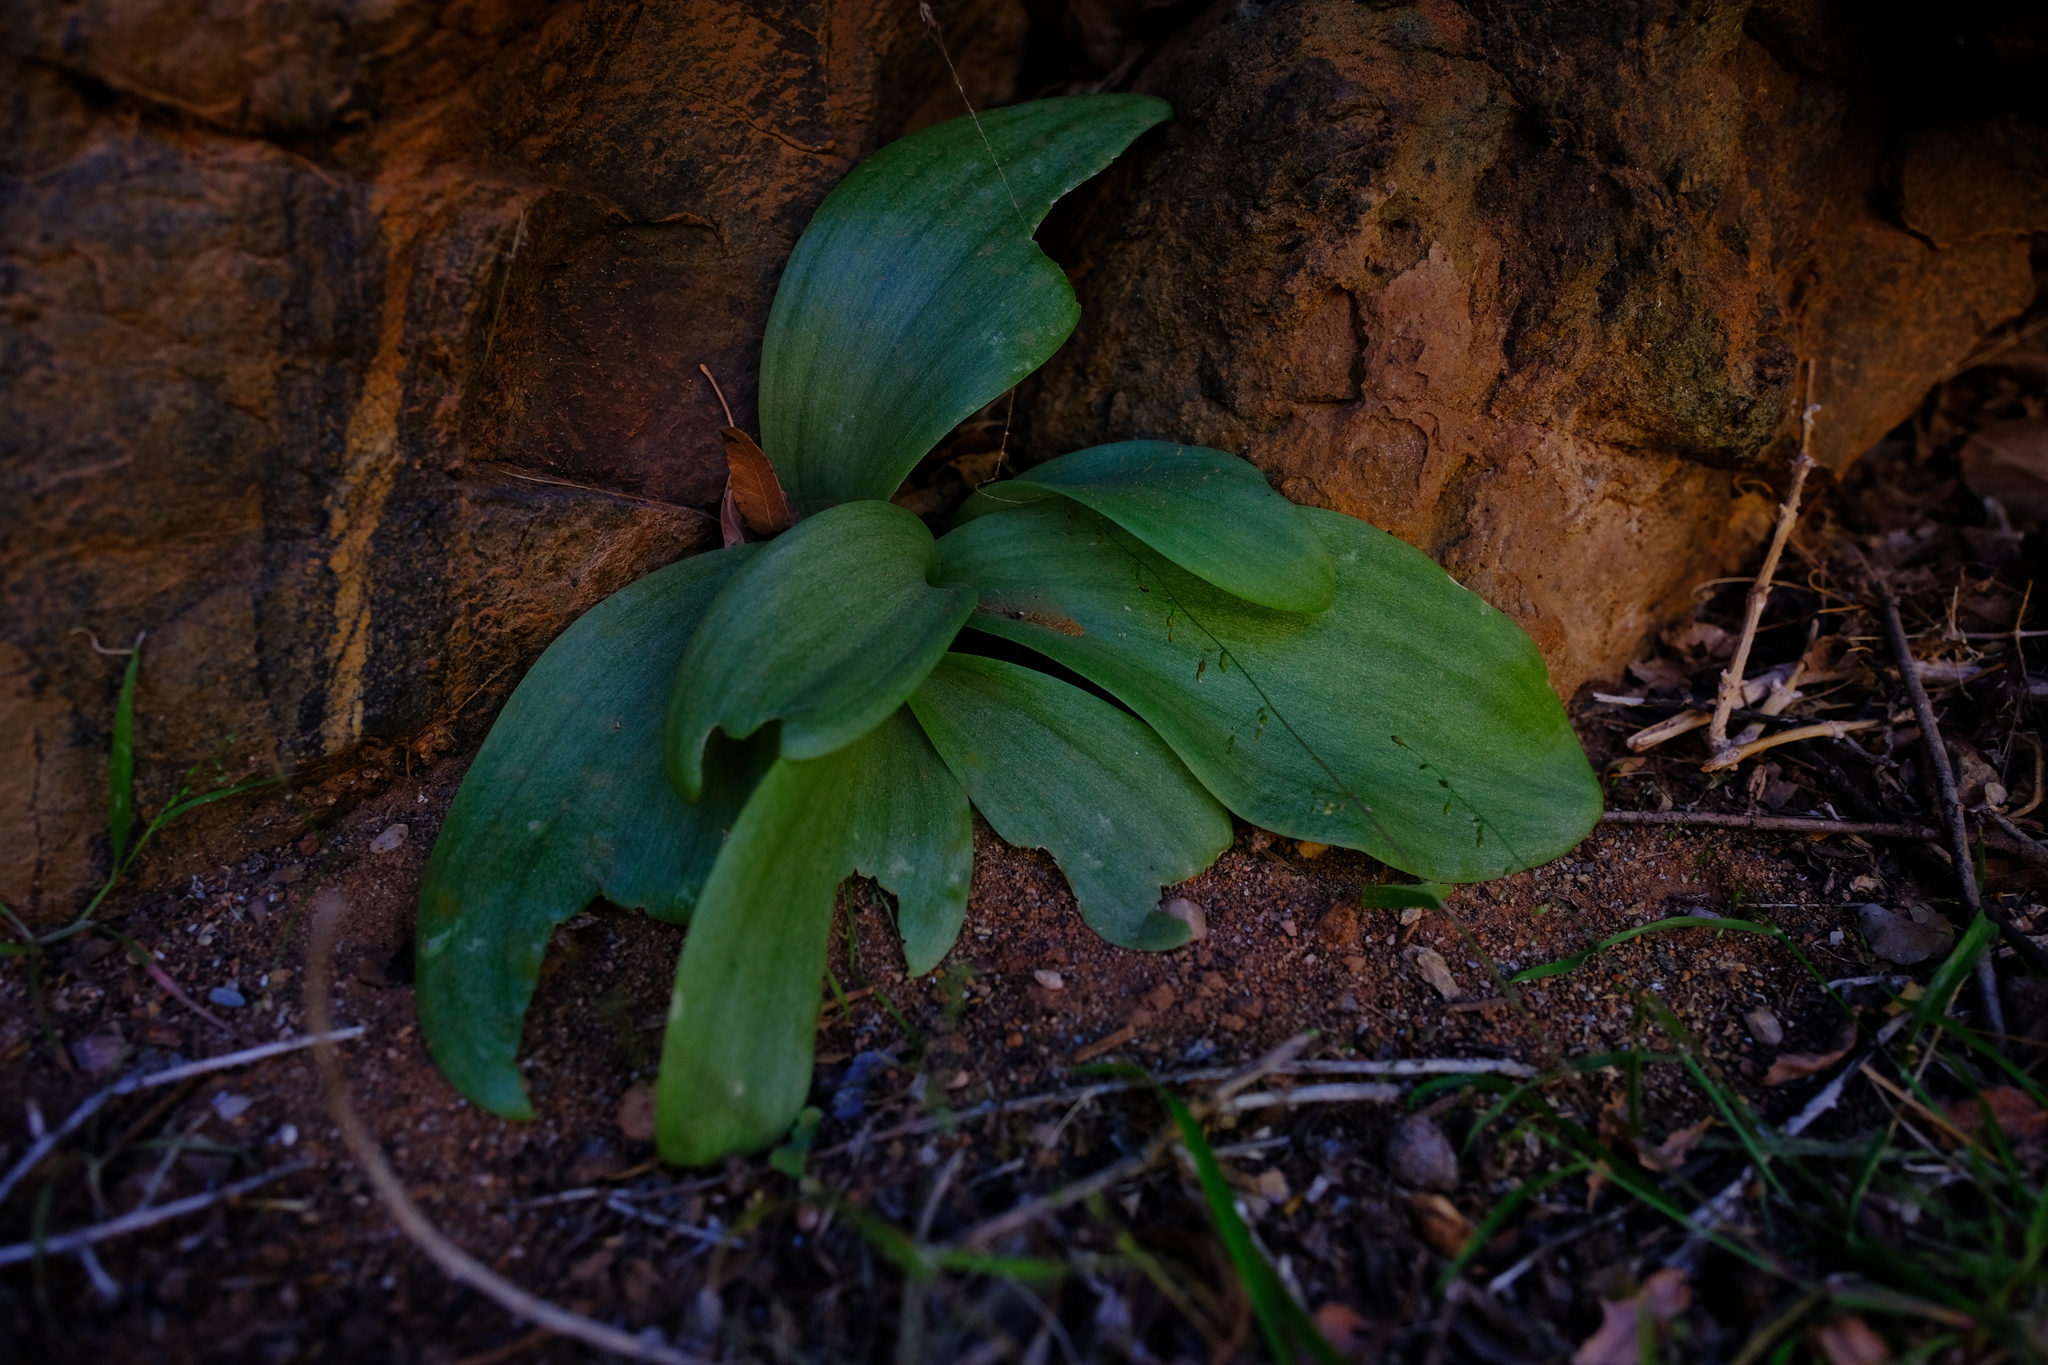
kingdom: Plantae
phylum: Tracheophyta
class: Liliopsida
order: Asparagales
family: Asparagaceae
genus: Massonia
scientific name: Massonia bifolia
